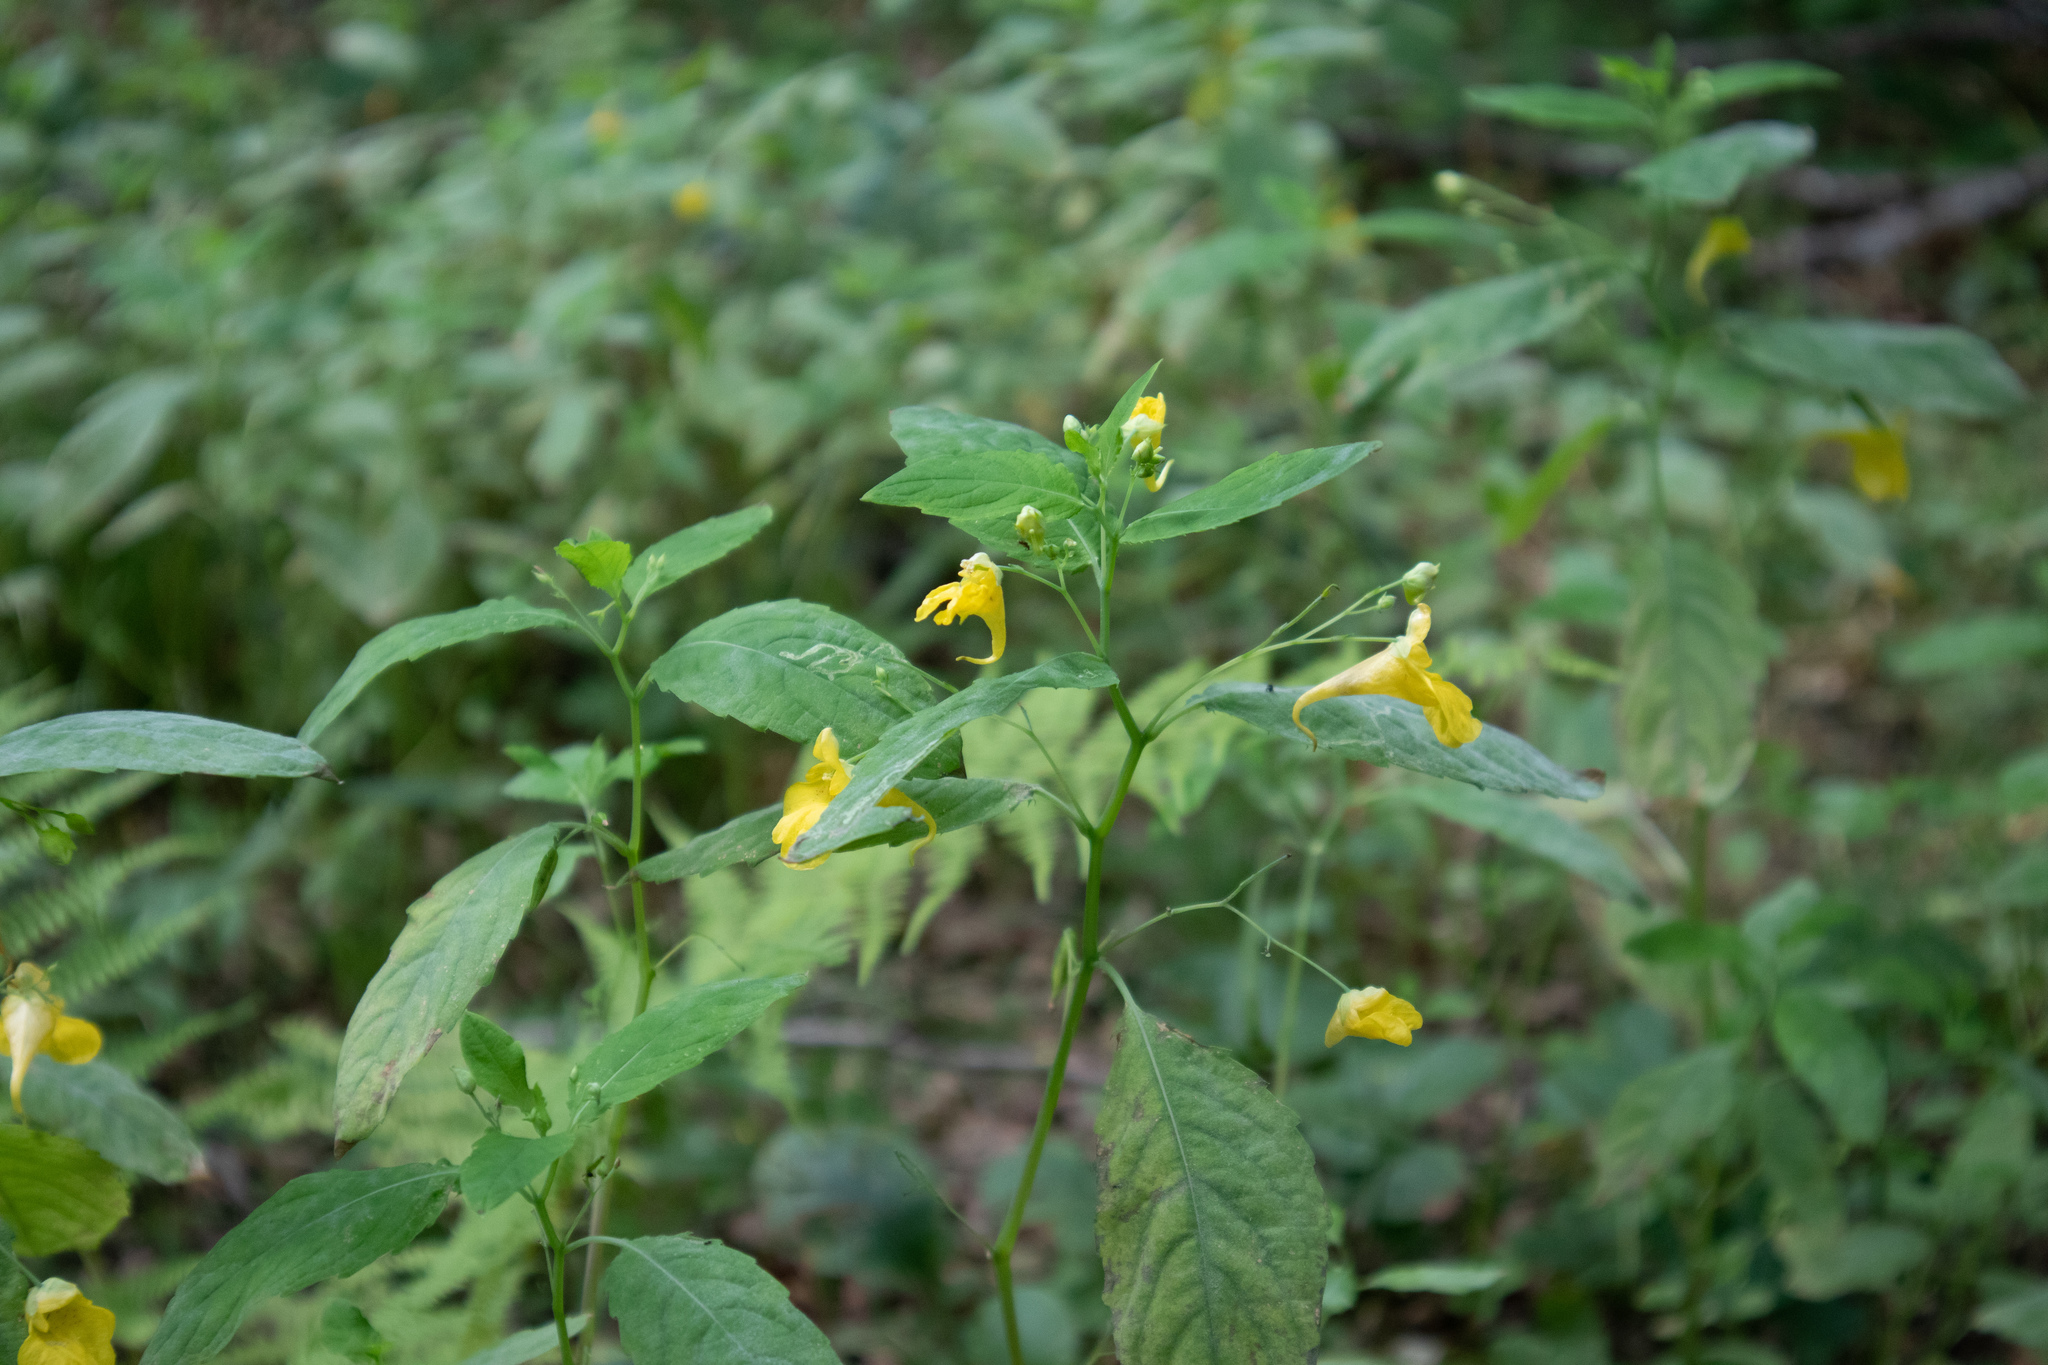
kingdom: Plantae
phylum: Tracheophyta
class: Magnoliopsida
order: Ericales
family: Balsaminaceae
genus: Impatiens
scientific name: Impatiens noli-tangere
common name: Touch-me-not balsam
